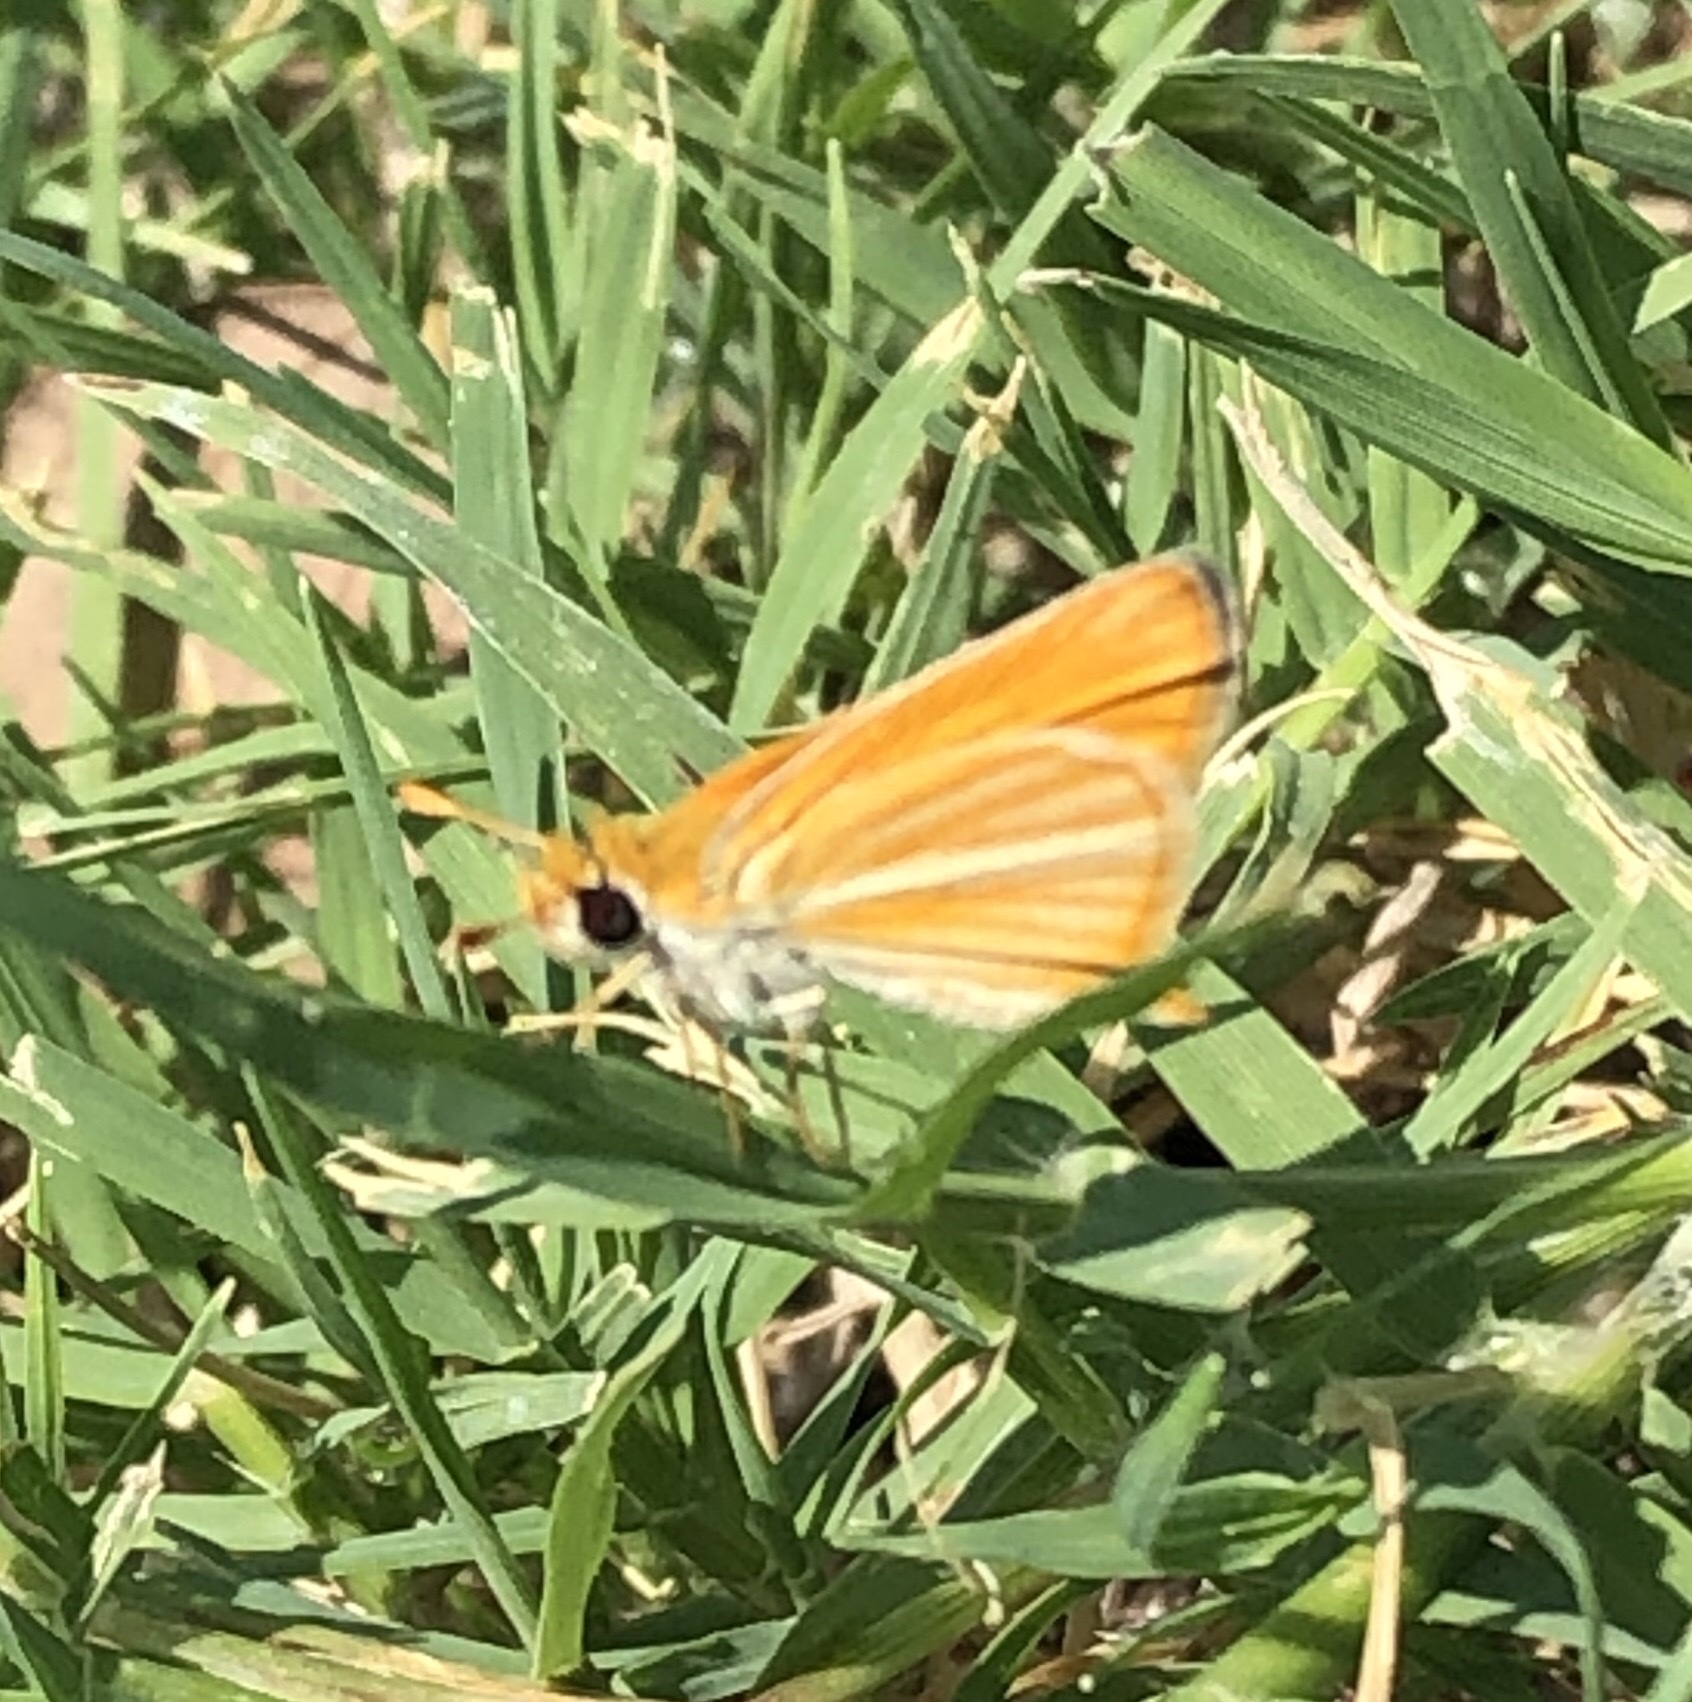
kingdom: Animalia
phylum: Arthropoda
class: Insecta
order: Lepidoptera
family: Hesperiidae
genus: Copaeodes
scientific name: Copaeodes minima
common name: Southern skipperling
